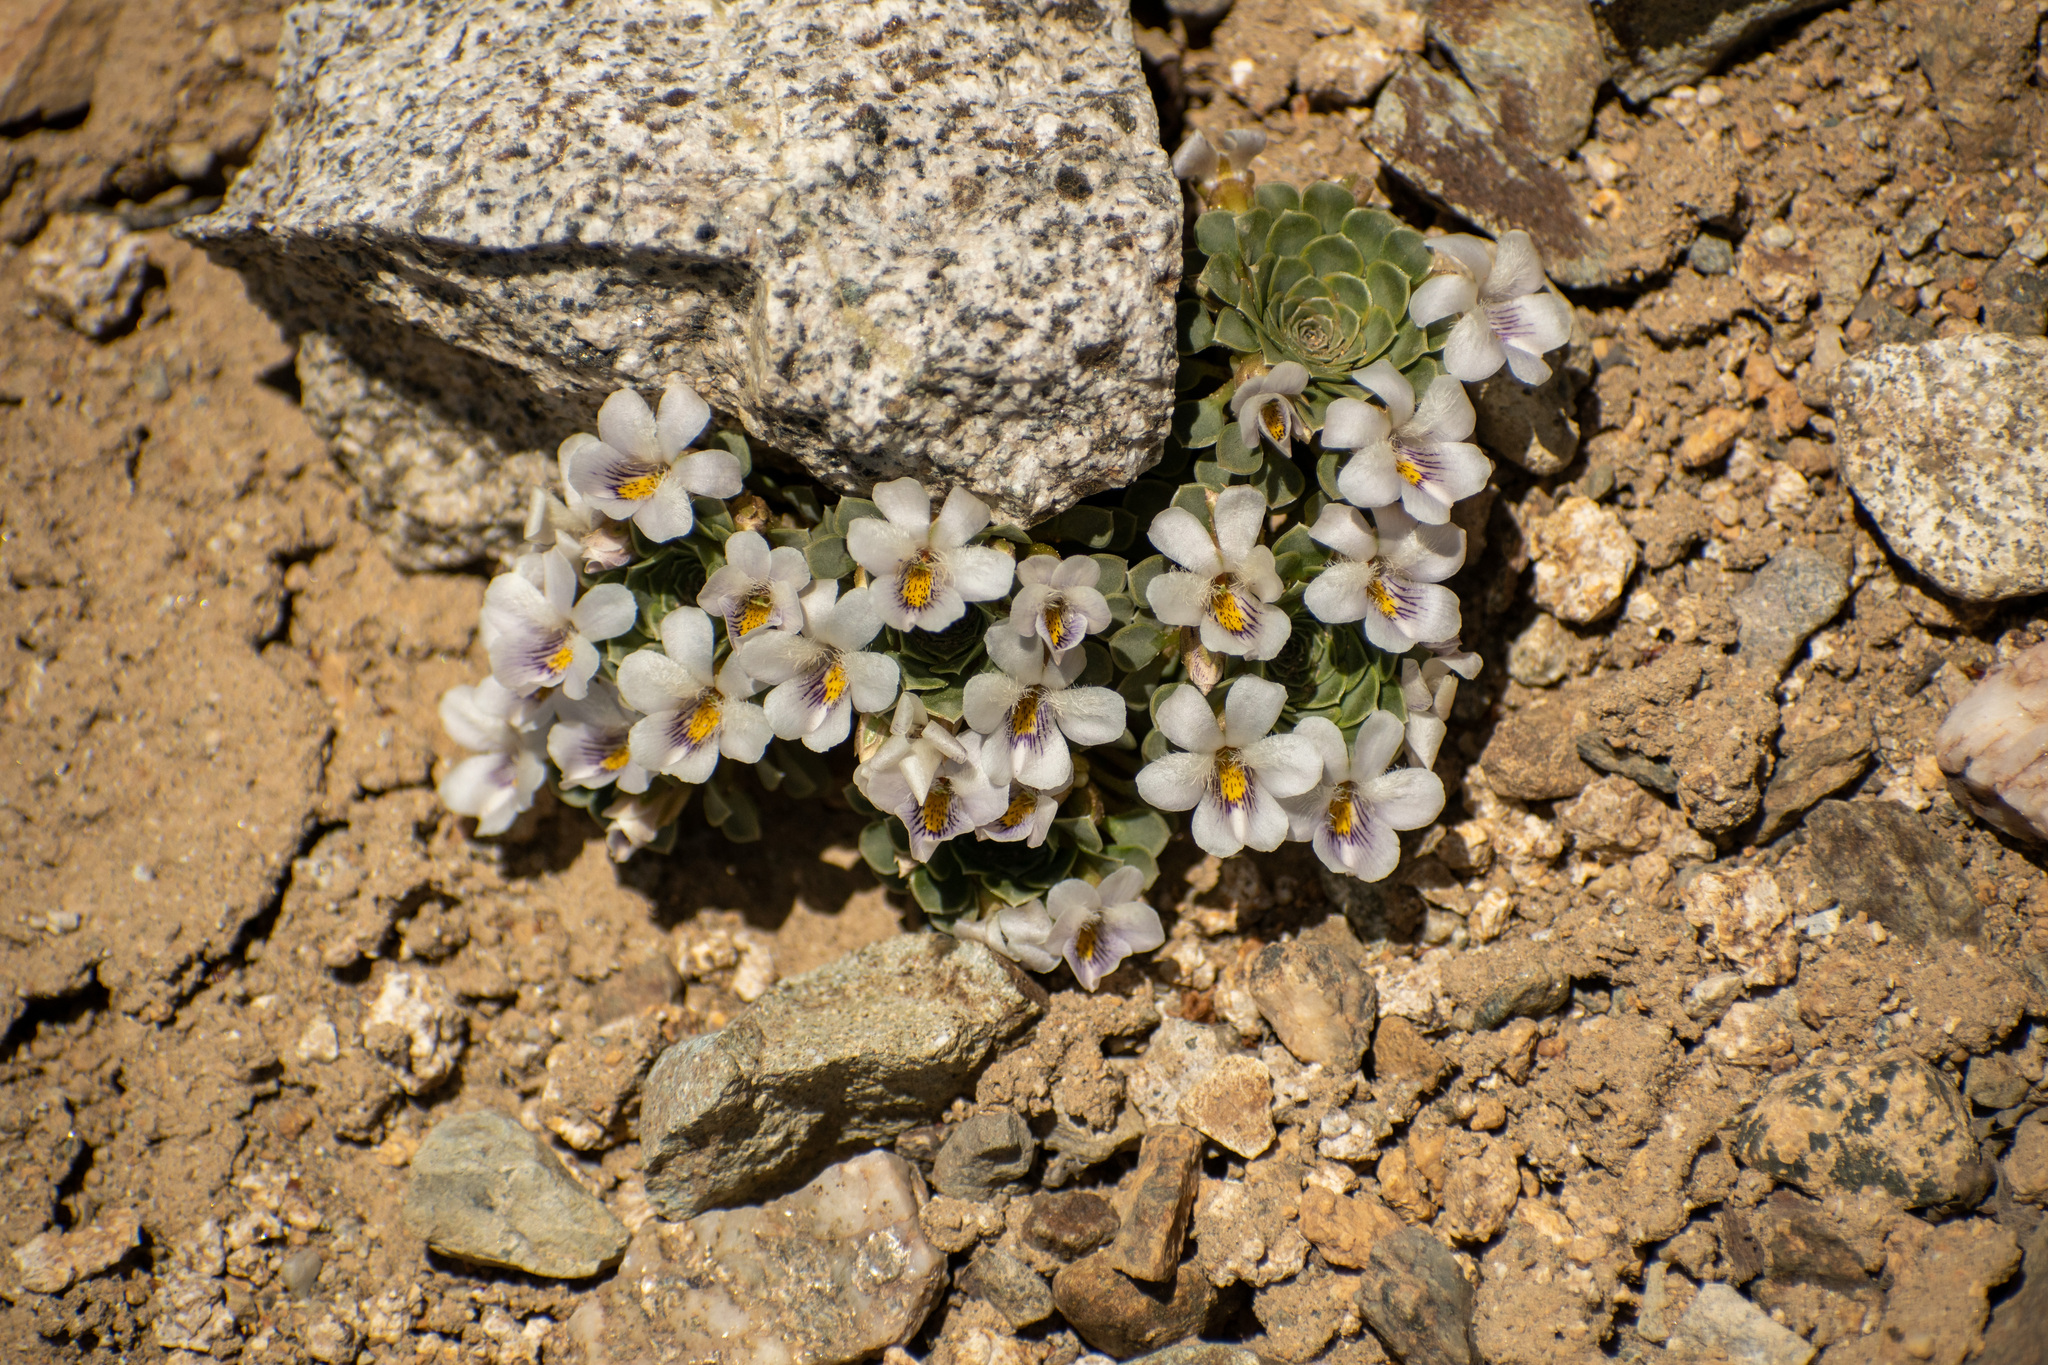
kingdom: Plantae
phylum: Tracheophyta
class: Magnoliopsida
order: Malpighiales
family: Violaceae
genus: Viola
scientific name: Viola petraea
